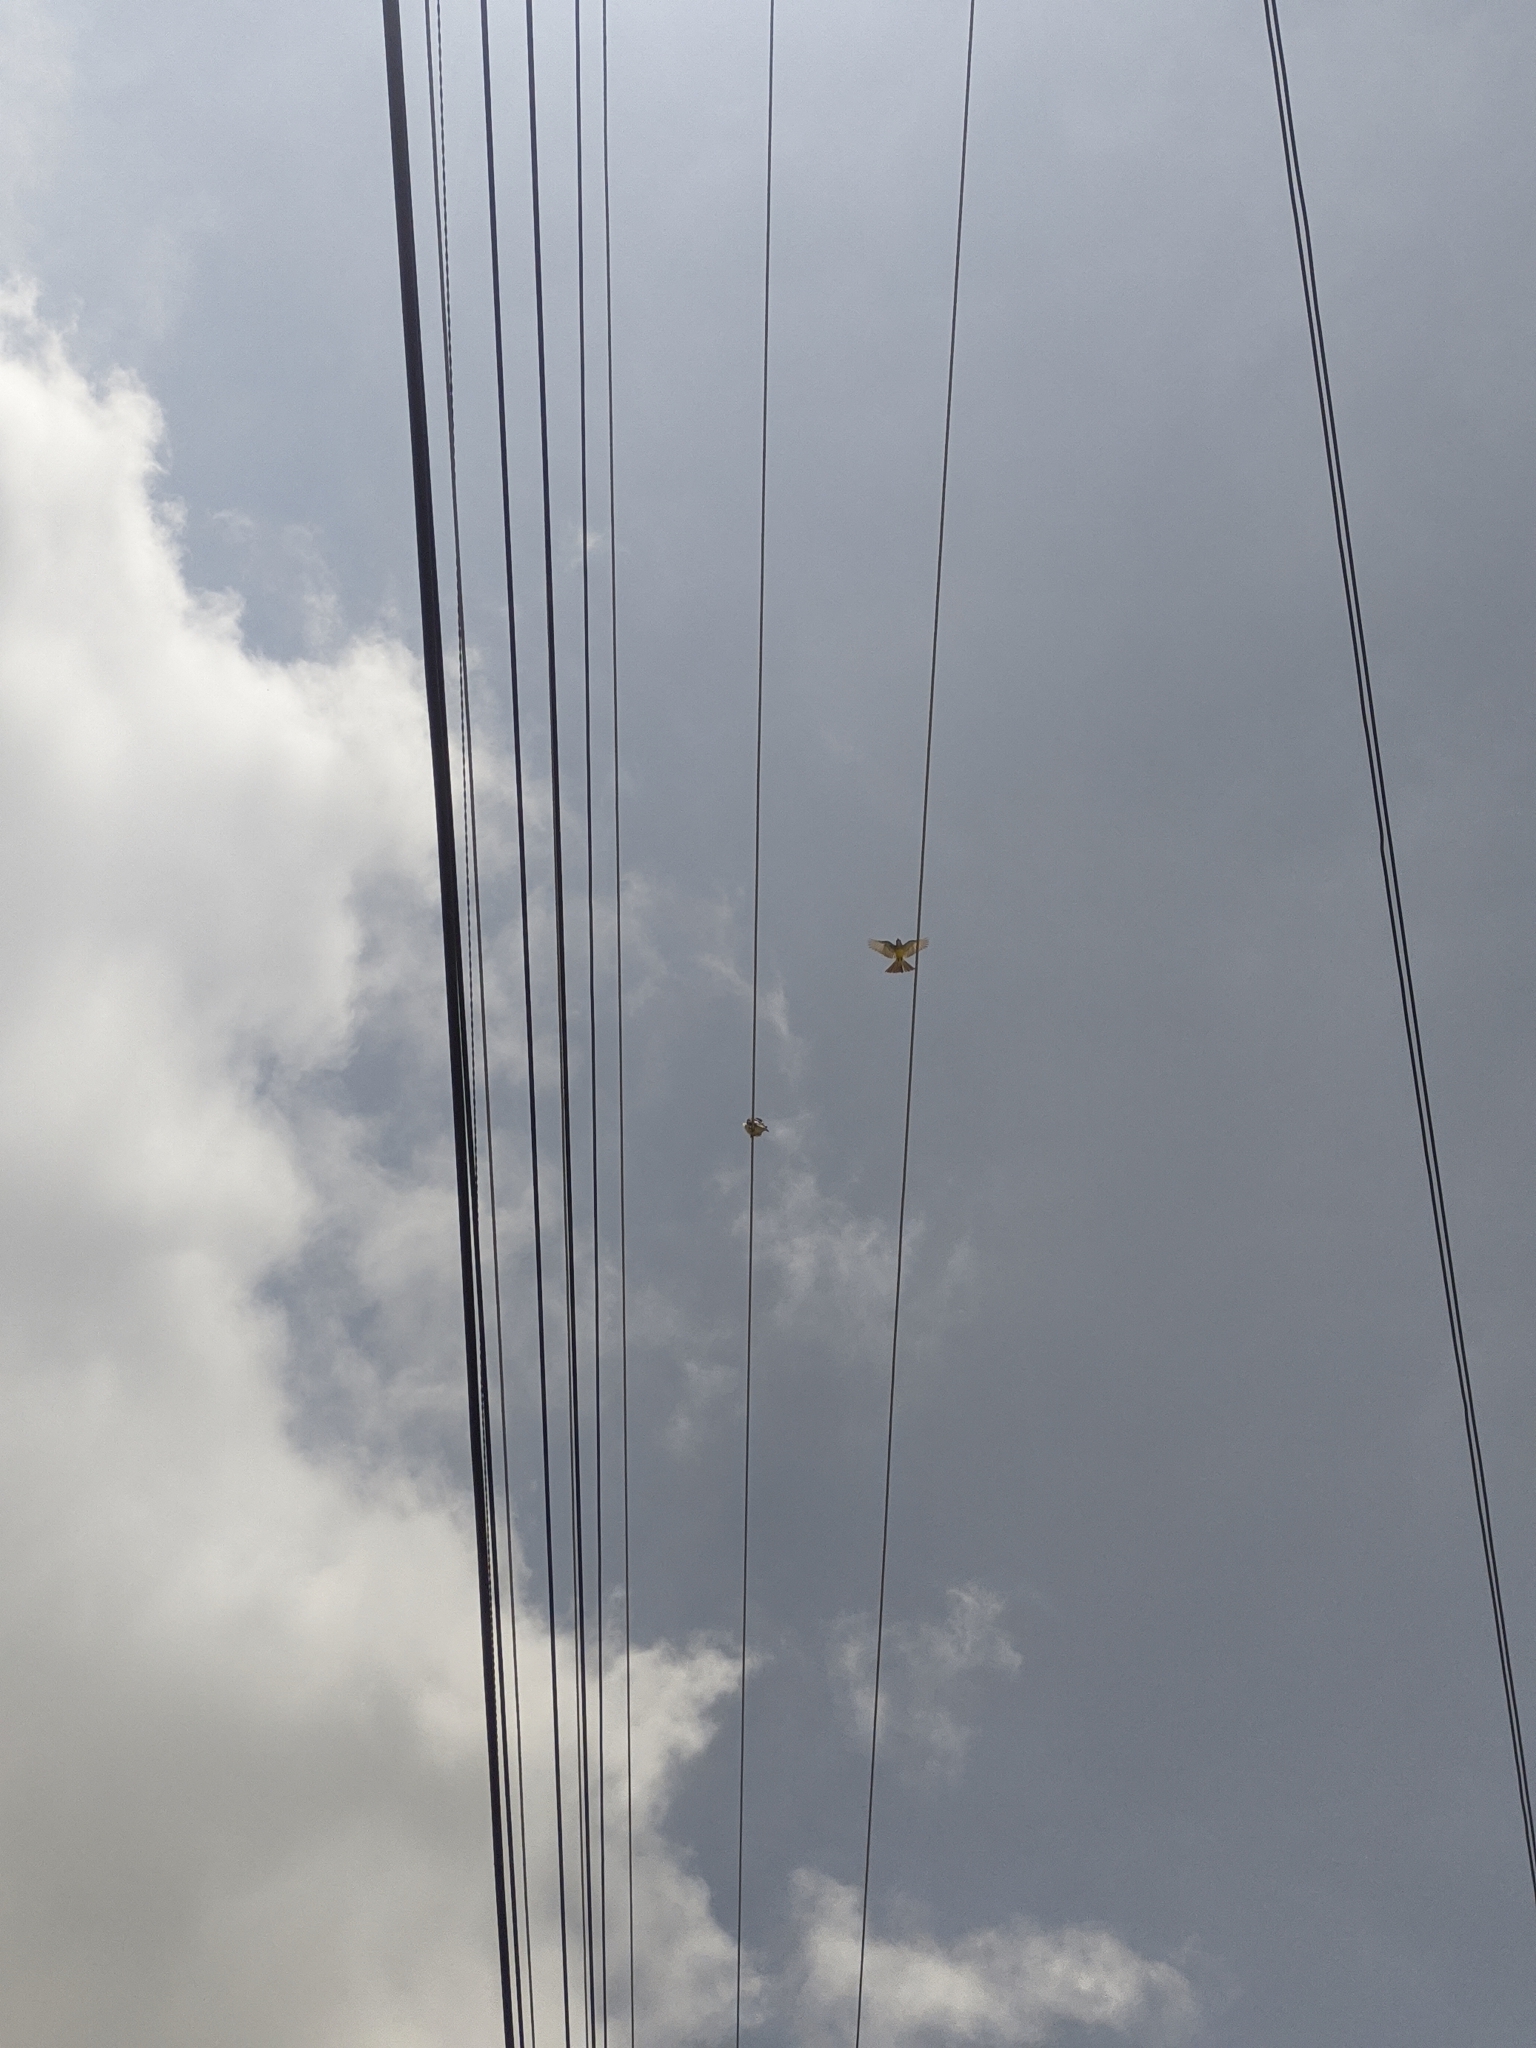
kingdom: Animalia
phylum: Chordata
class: Aves
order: Accipitriformes
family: Accipitridae
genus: Gampsonyx
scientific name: Gampsonyx swainsonii
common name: Pearl kite
